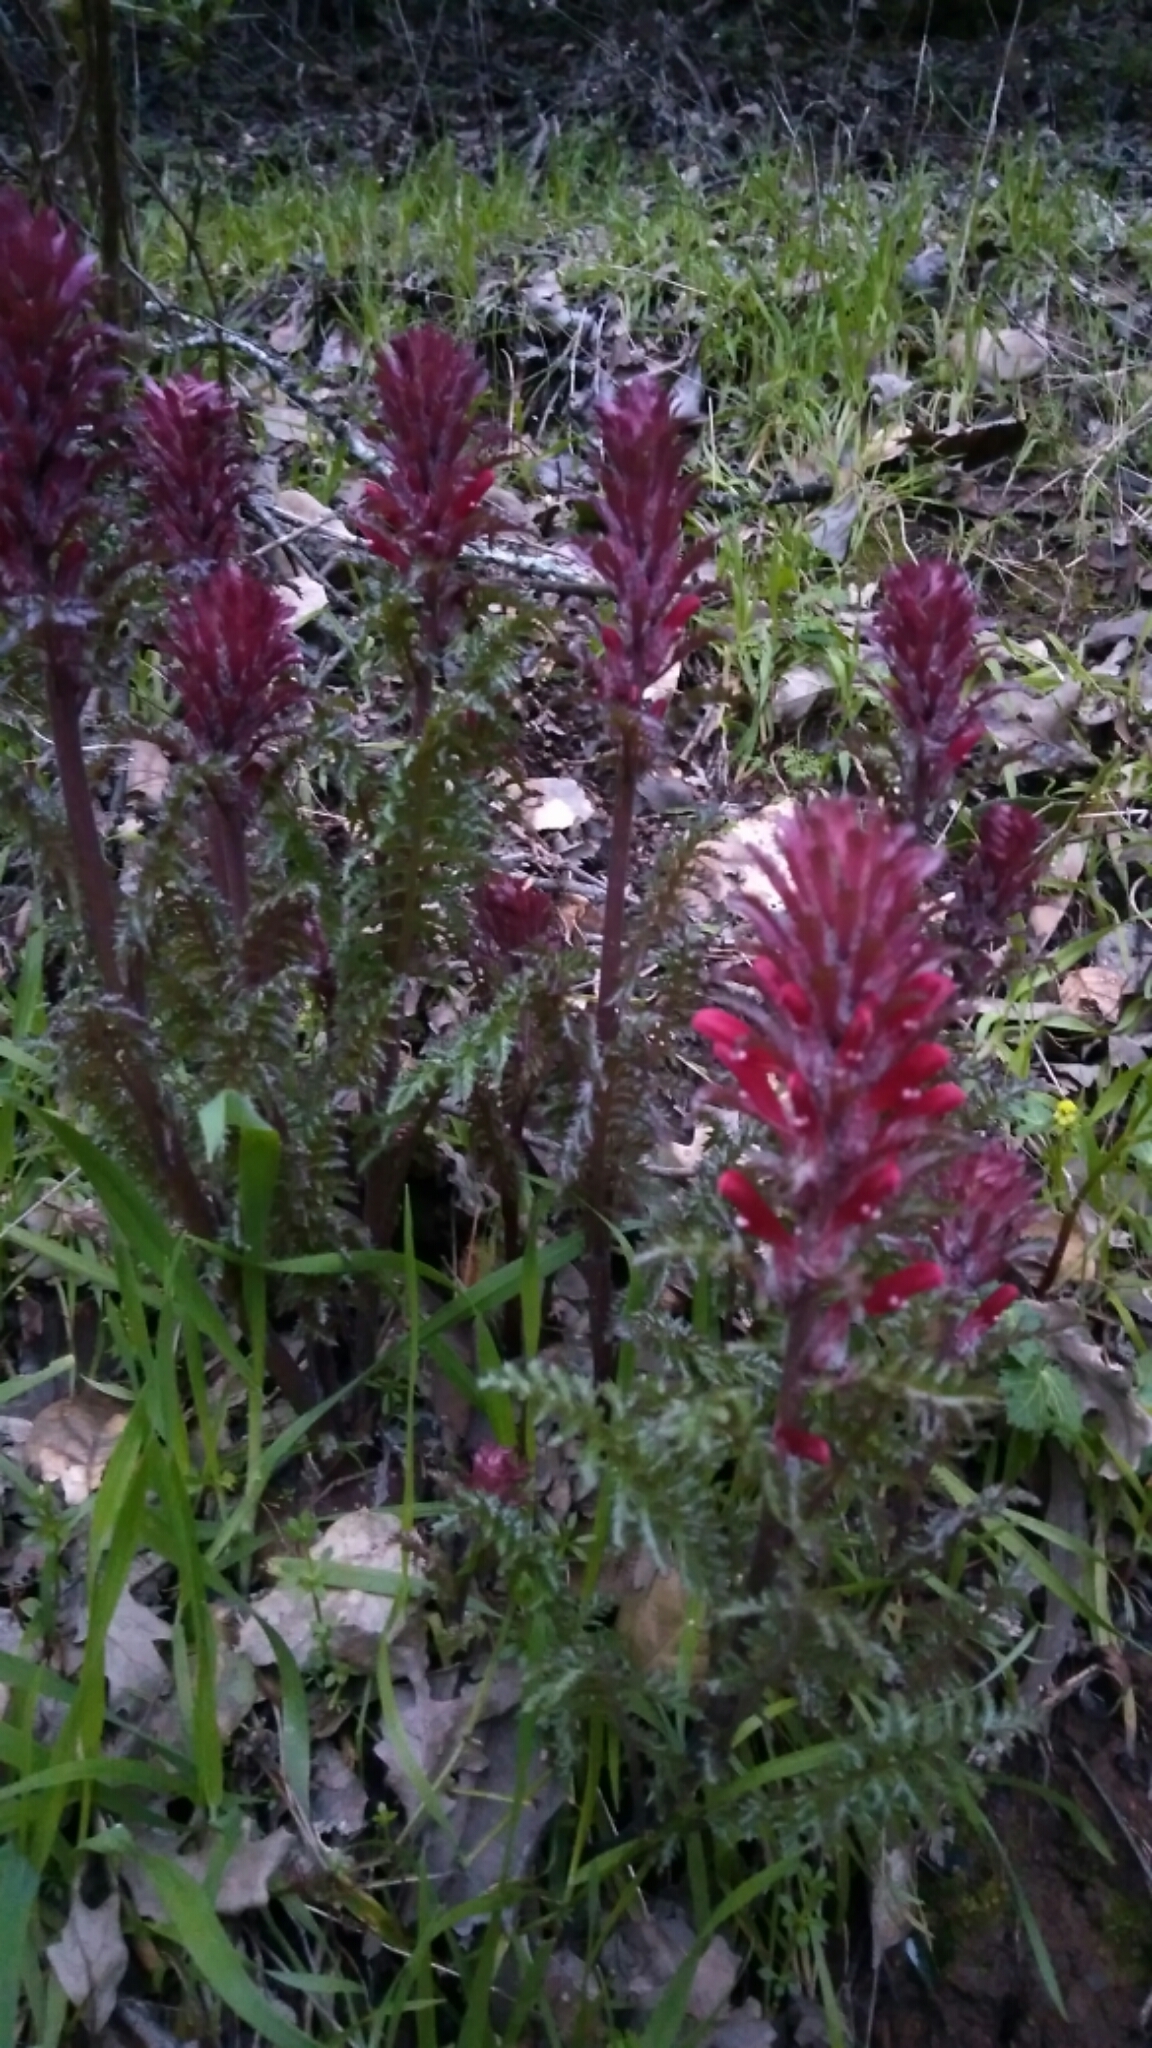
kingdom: Plantae
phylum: Tracheophyta
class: Magnoliopsida
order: Lamiales
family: Orobanchaceae
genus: Pedicularis
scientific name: Pedicularis densiflora
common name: Indian warrior
